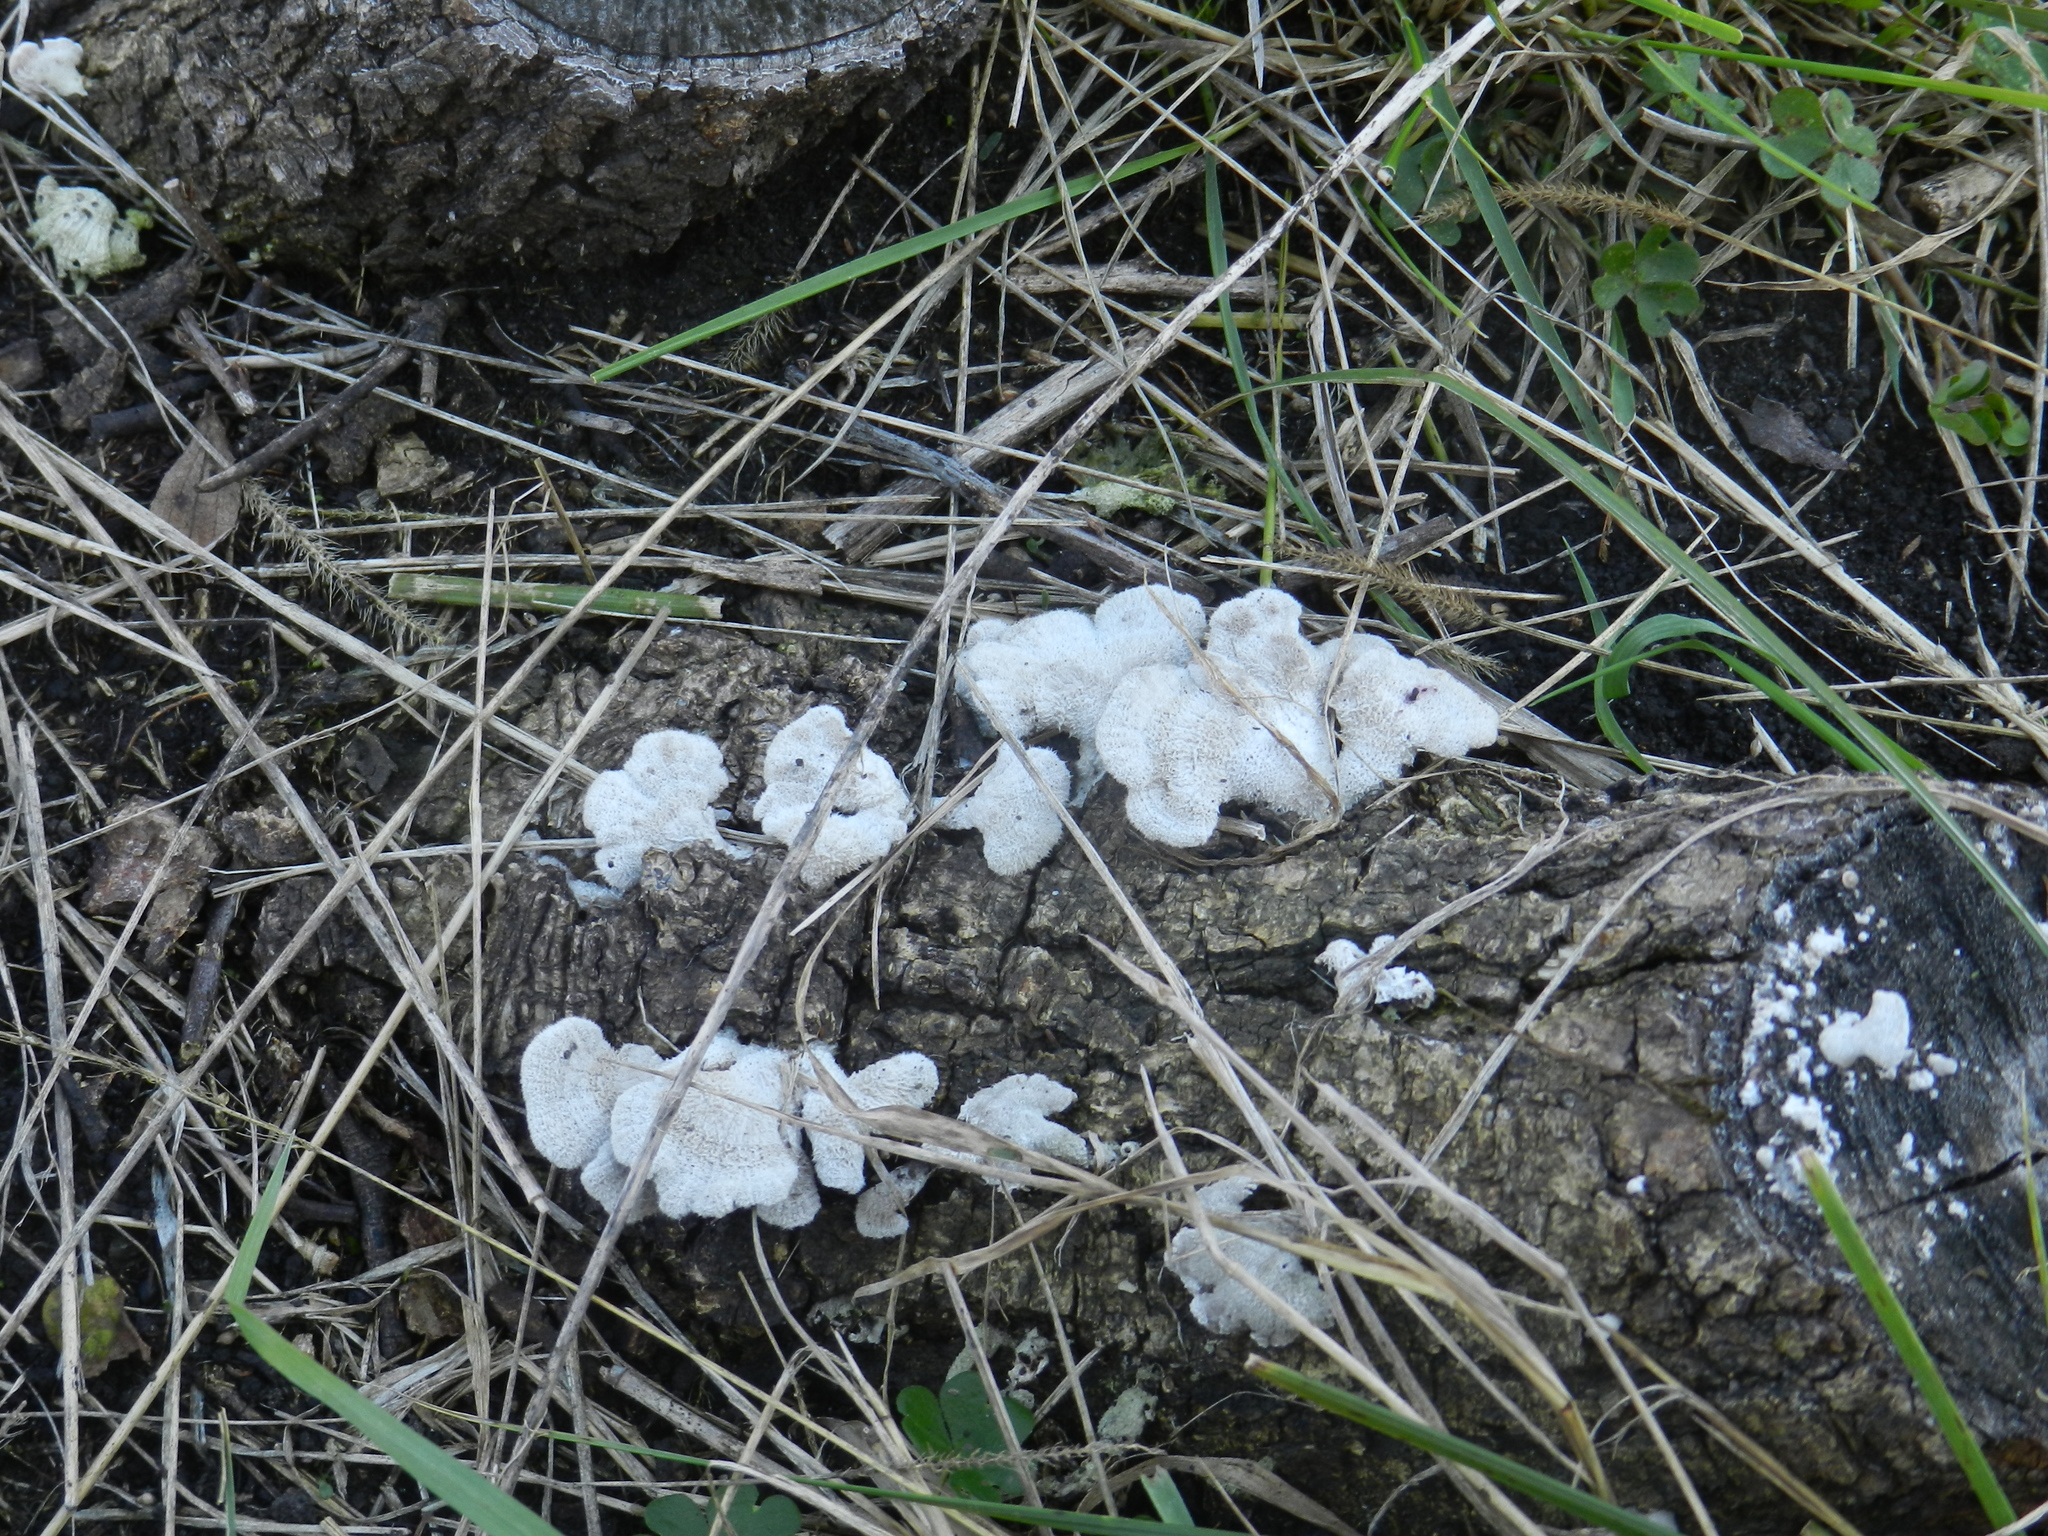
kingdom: Fungi
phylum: Basidiomycota
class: Agaricomycetes
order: Agaricales
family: Schizophyllaceae
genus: Schizophyllum
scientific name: Schizophyllum commune
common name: Common porecrust
